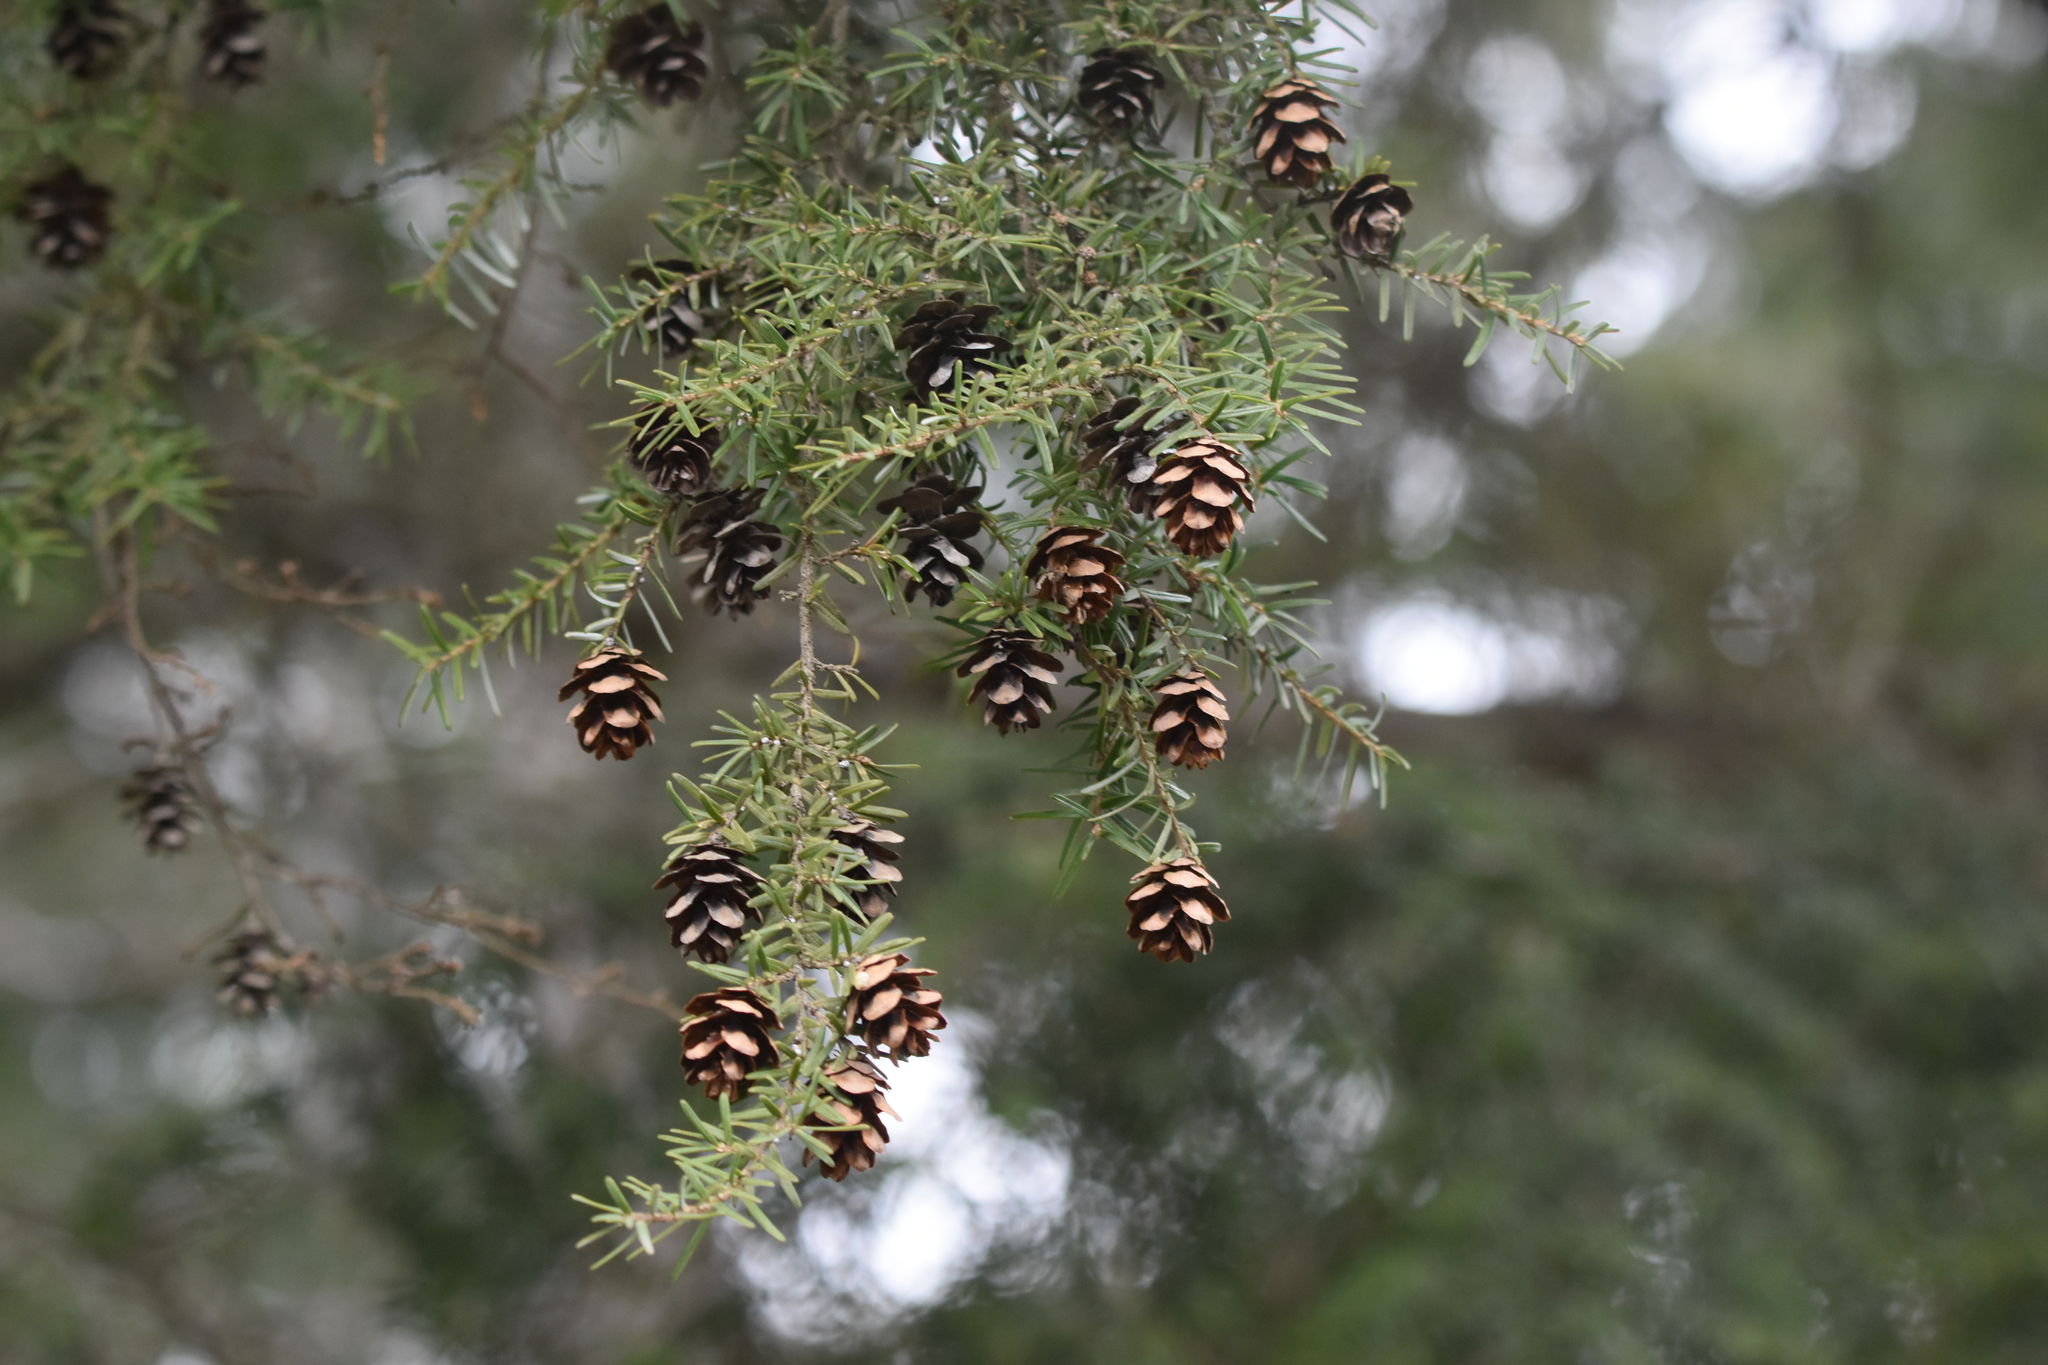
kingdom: Plantae
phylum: Tracheophyta
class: Pinopsida
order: Pinales
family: Pinaceae
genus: Tsuga
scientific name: Tsuga heterophylla
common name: Western hemlock
